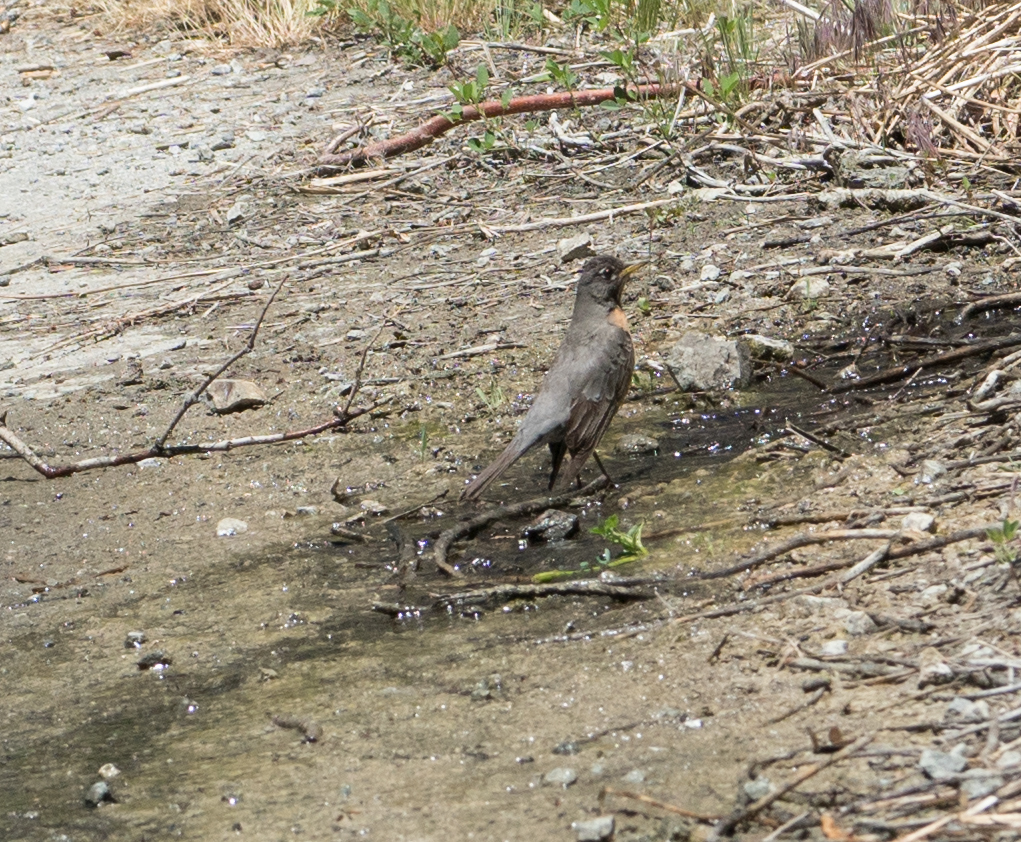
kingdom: Animalia
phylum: Chordata
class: Aves
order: Passeriformes
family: Turdidae
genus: Turdus
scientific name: Turdus migratorius
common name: American robin
